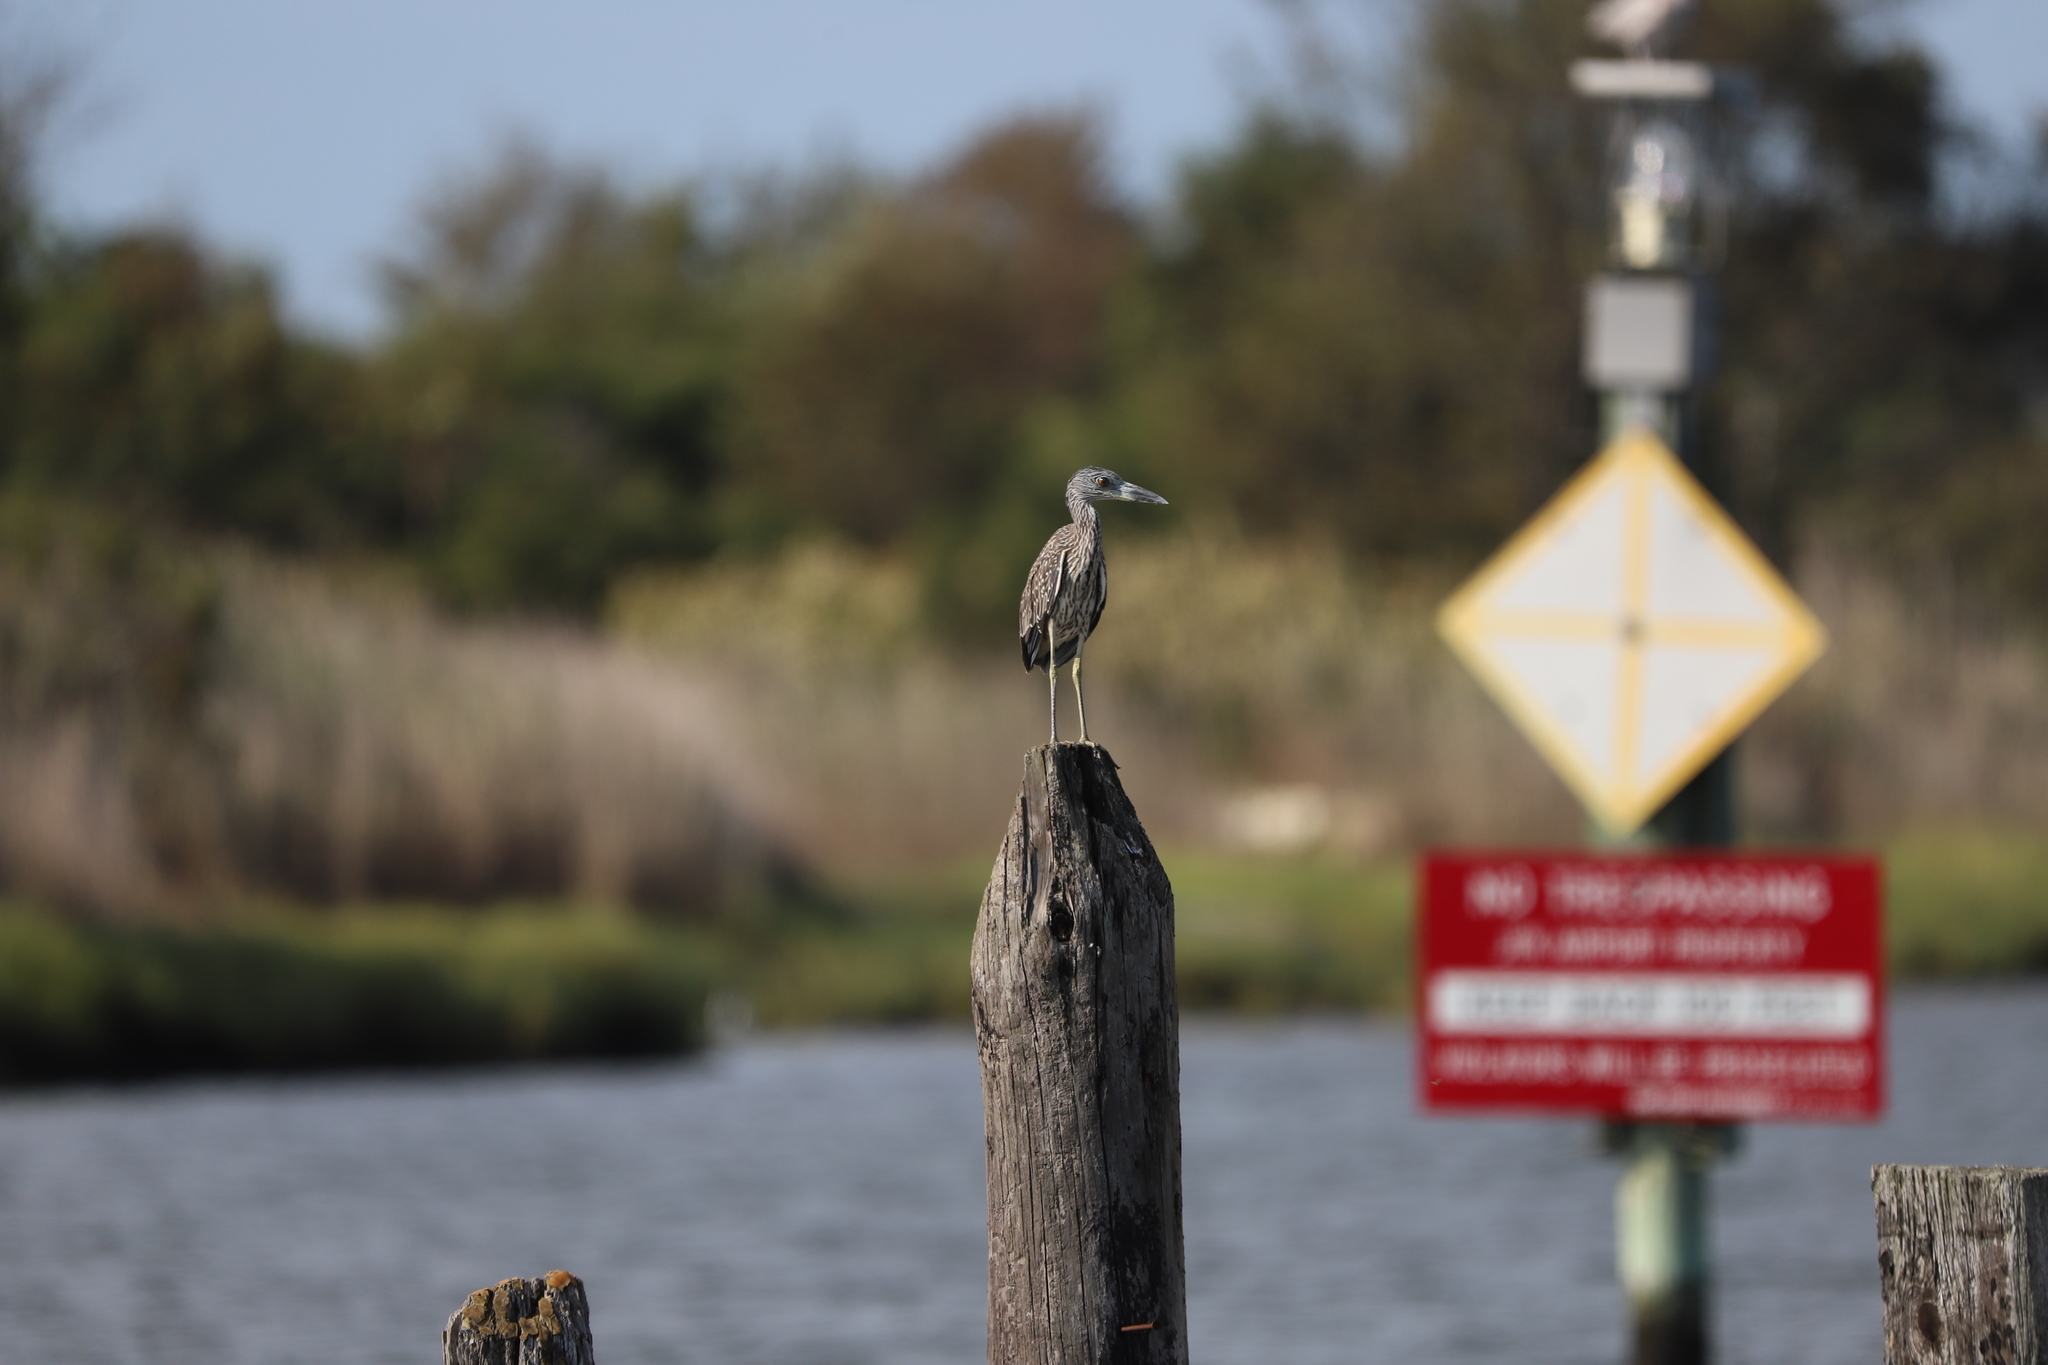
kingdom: Animalia
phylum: Chordata
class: Aves
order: Pelecaniformes
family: Ardeidae
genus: Nyctanassa
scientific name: Nyctanassa violacea
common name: Yellow-crowned night heron
